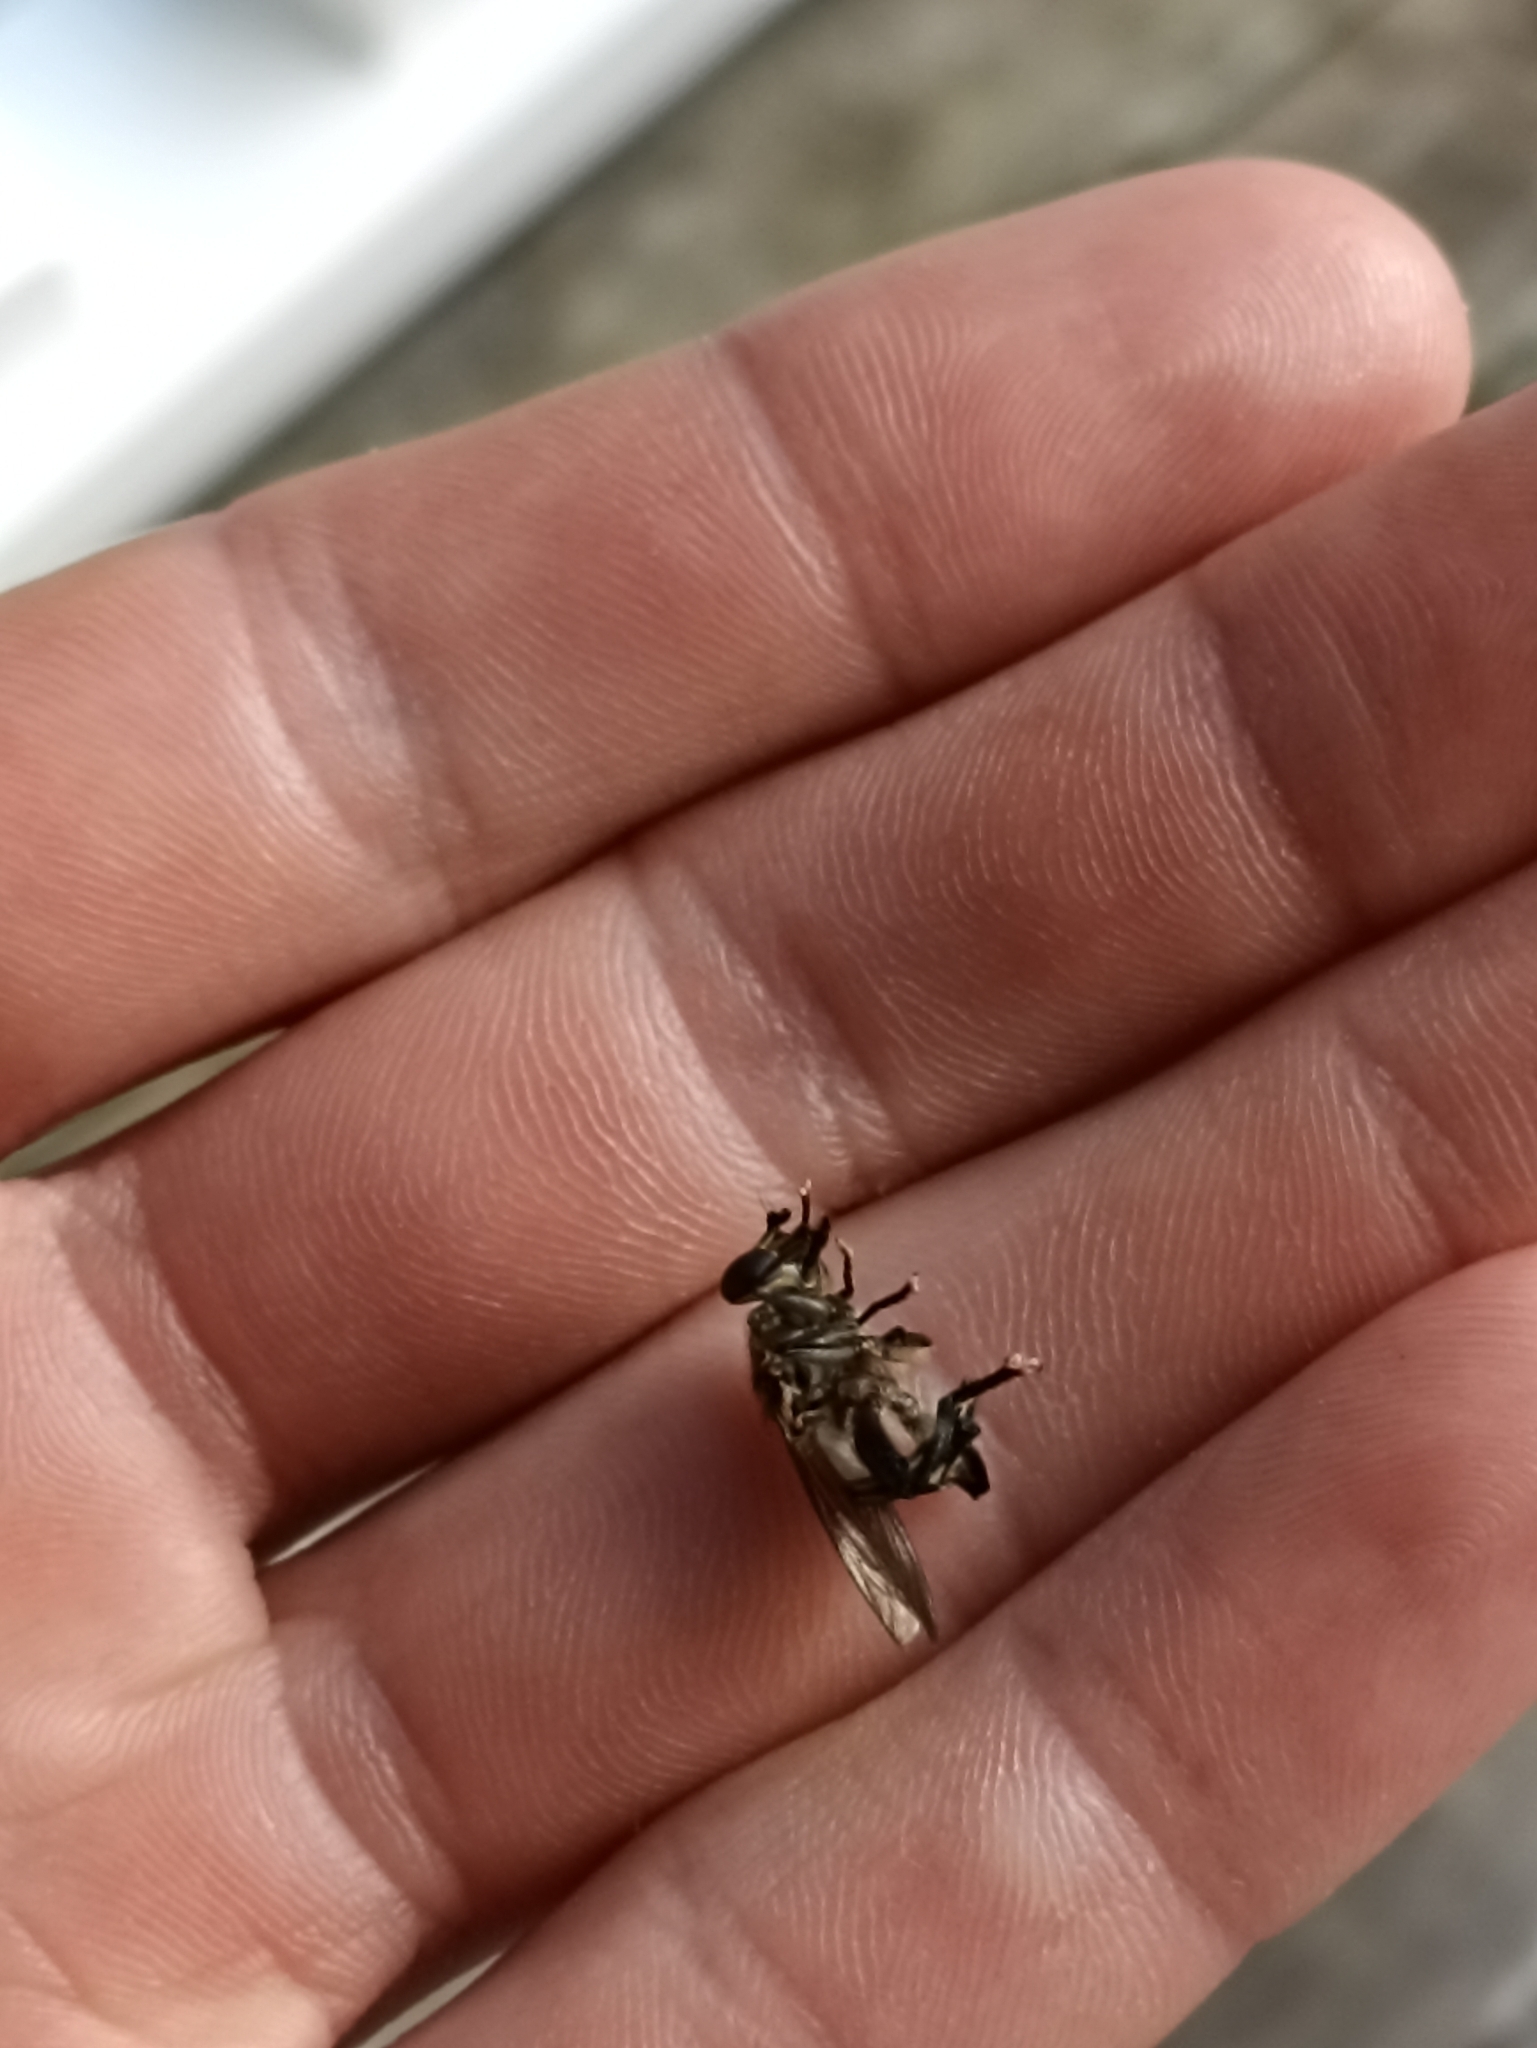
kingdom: Animalia
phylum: Arthropoda
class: Insecta
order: Diptera
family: Syrphidae
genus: Orthoprosopa
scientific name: Orthoprosopa bilineata
